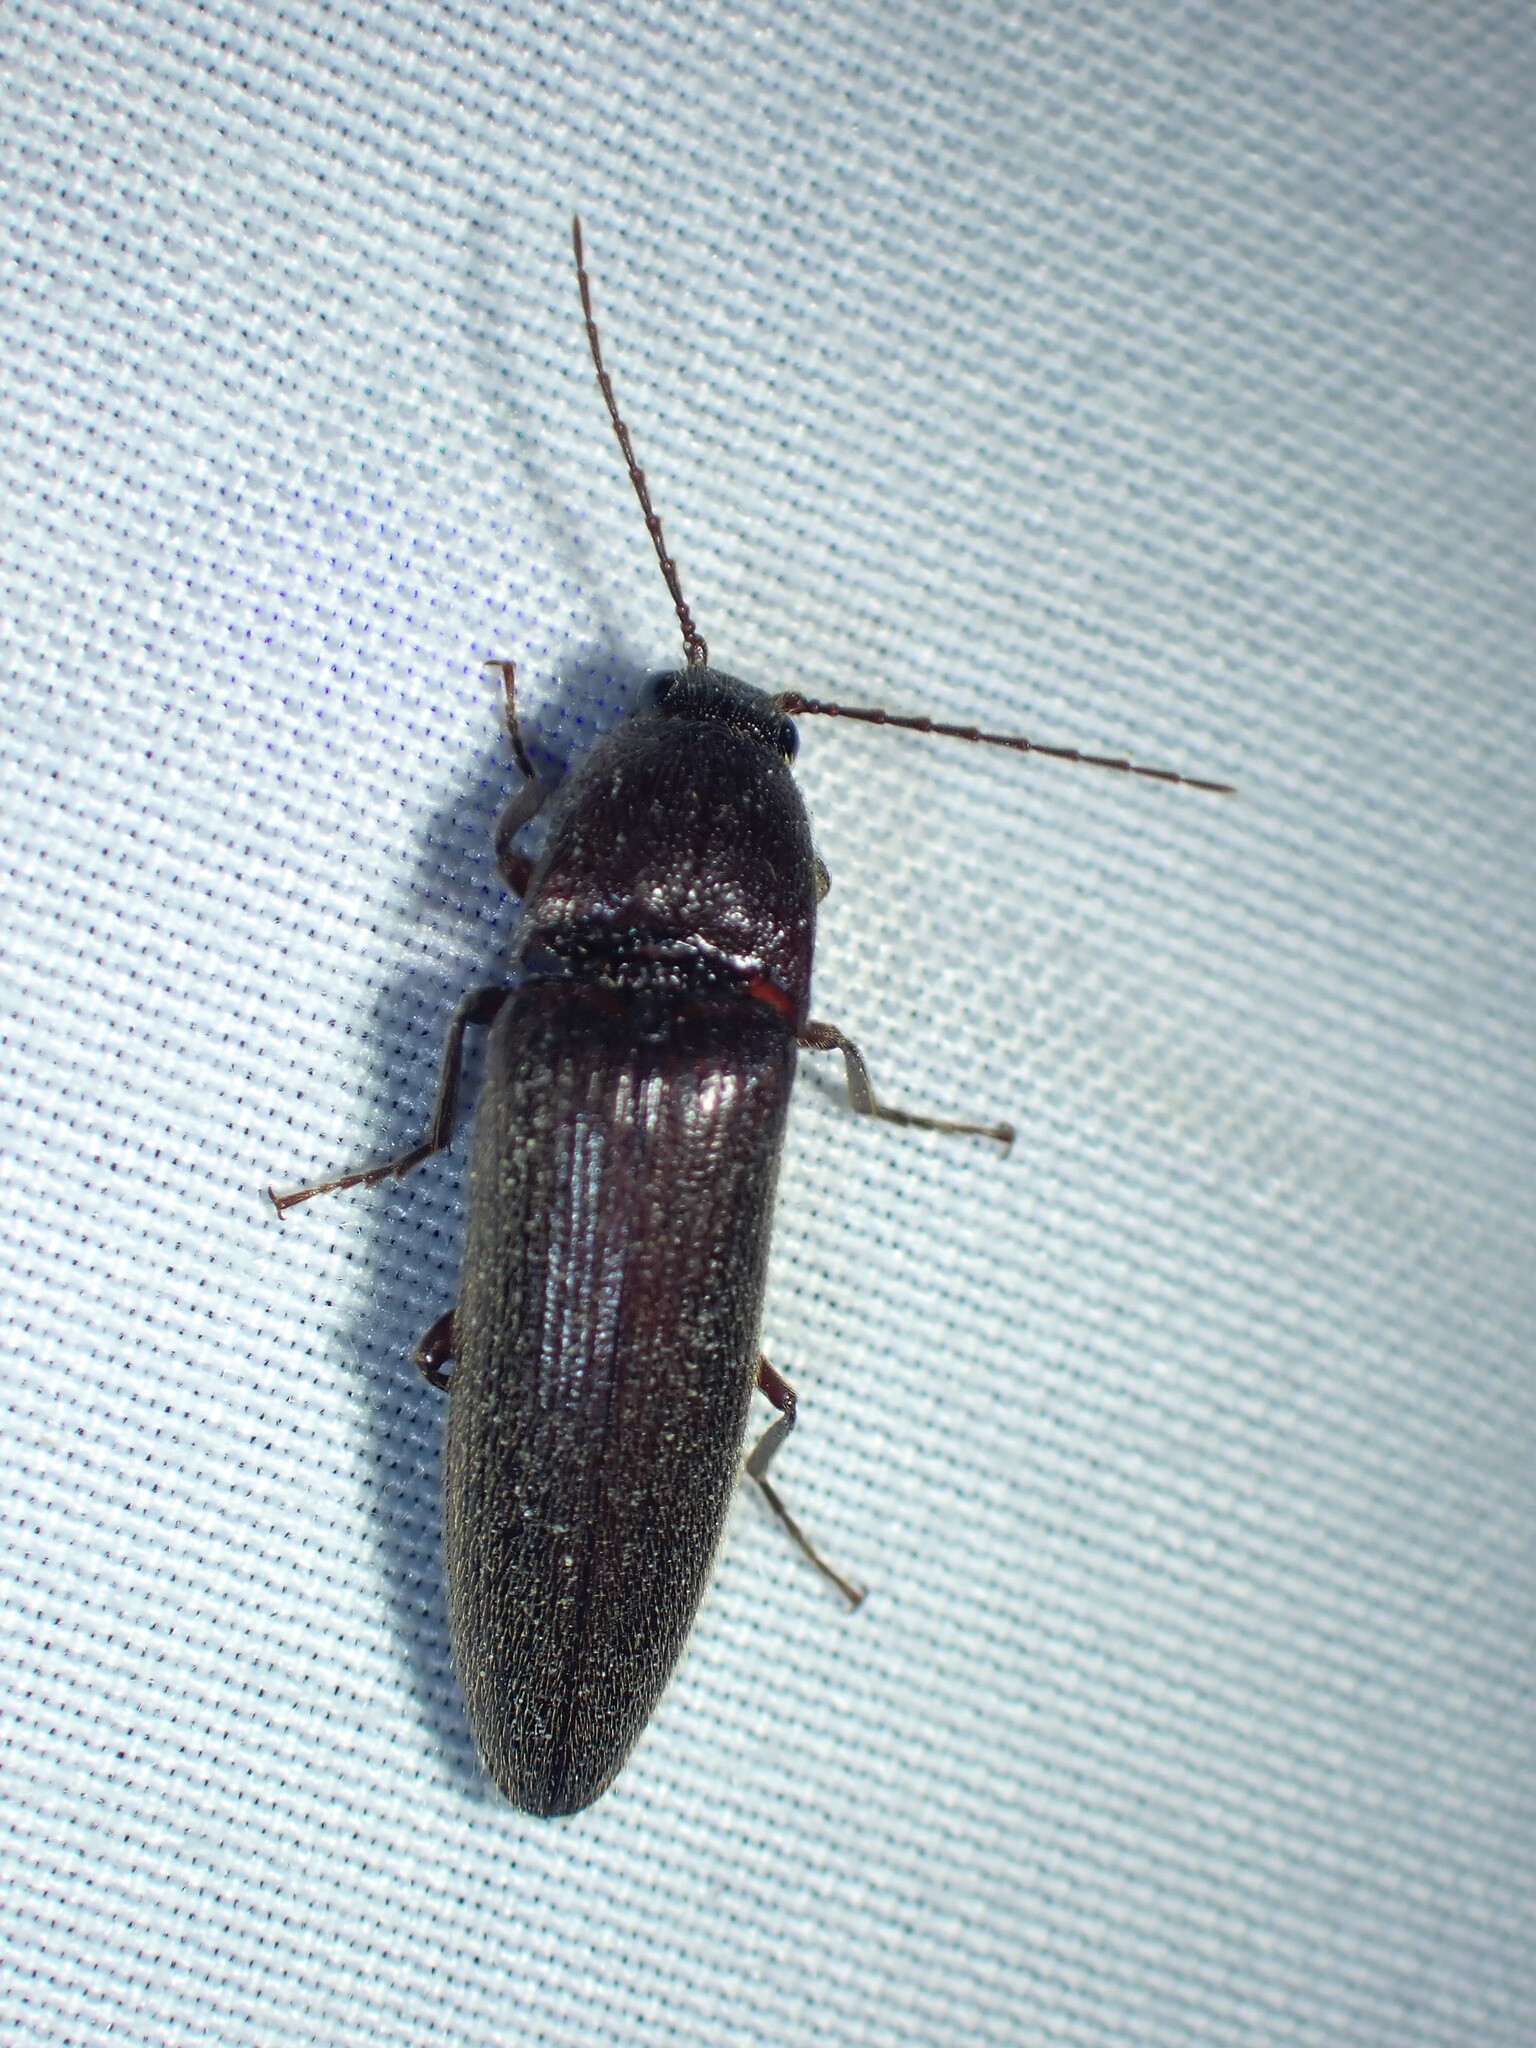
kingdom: Animalia
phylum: Arthropoda
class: Insecta
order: Coleoptera
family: Elateridae
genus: Melanotus
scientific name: Melanotus castanipes
